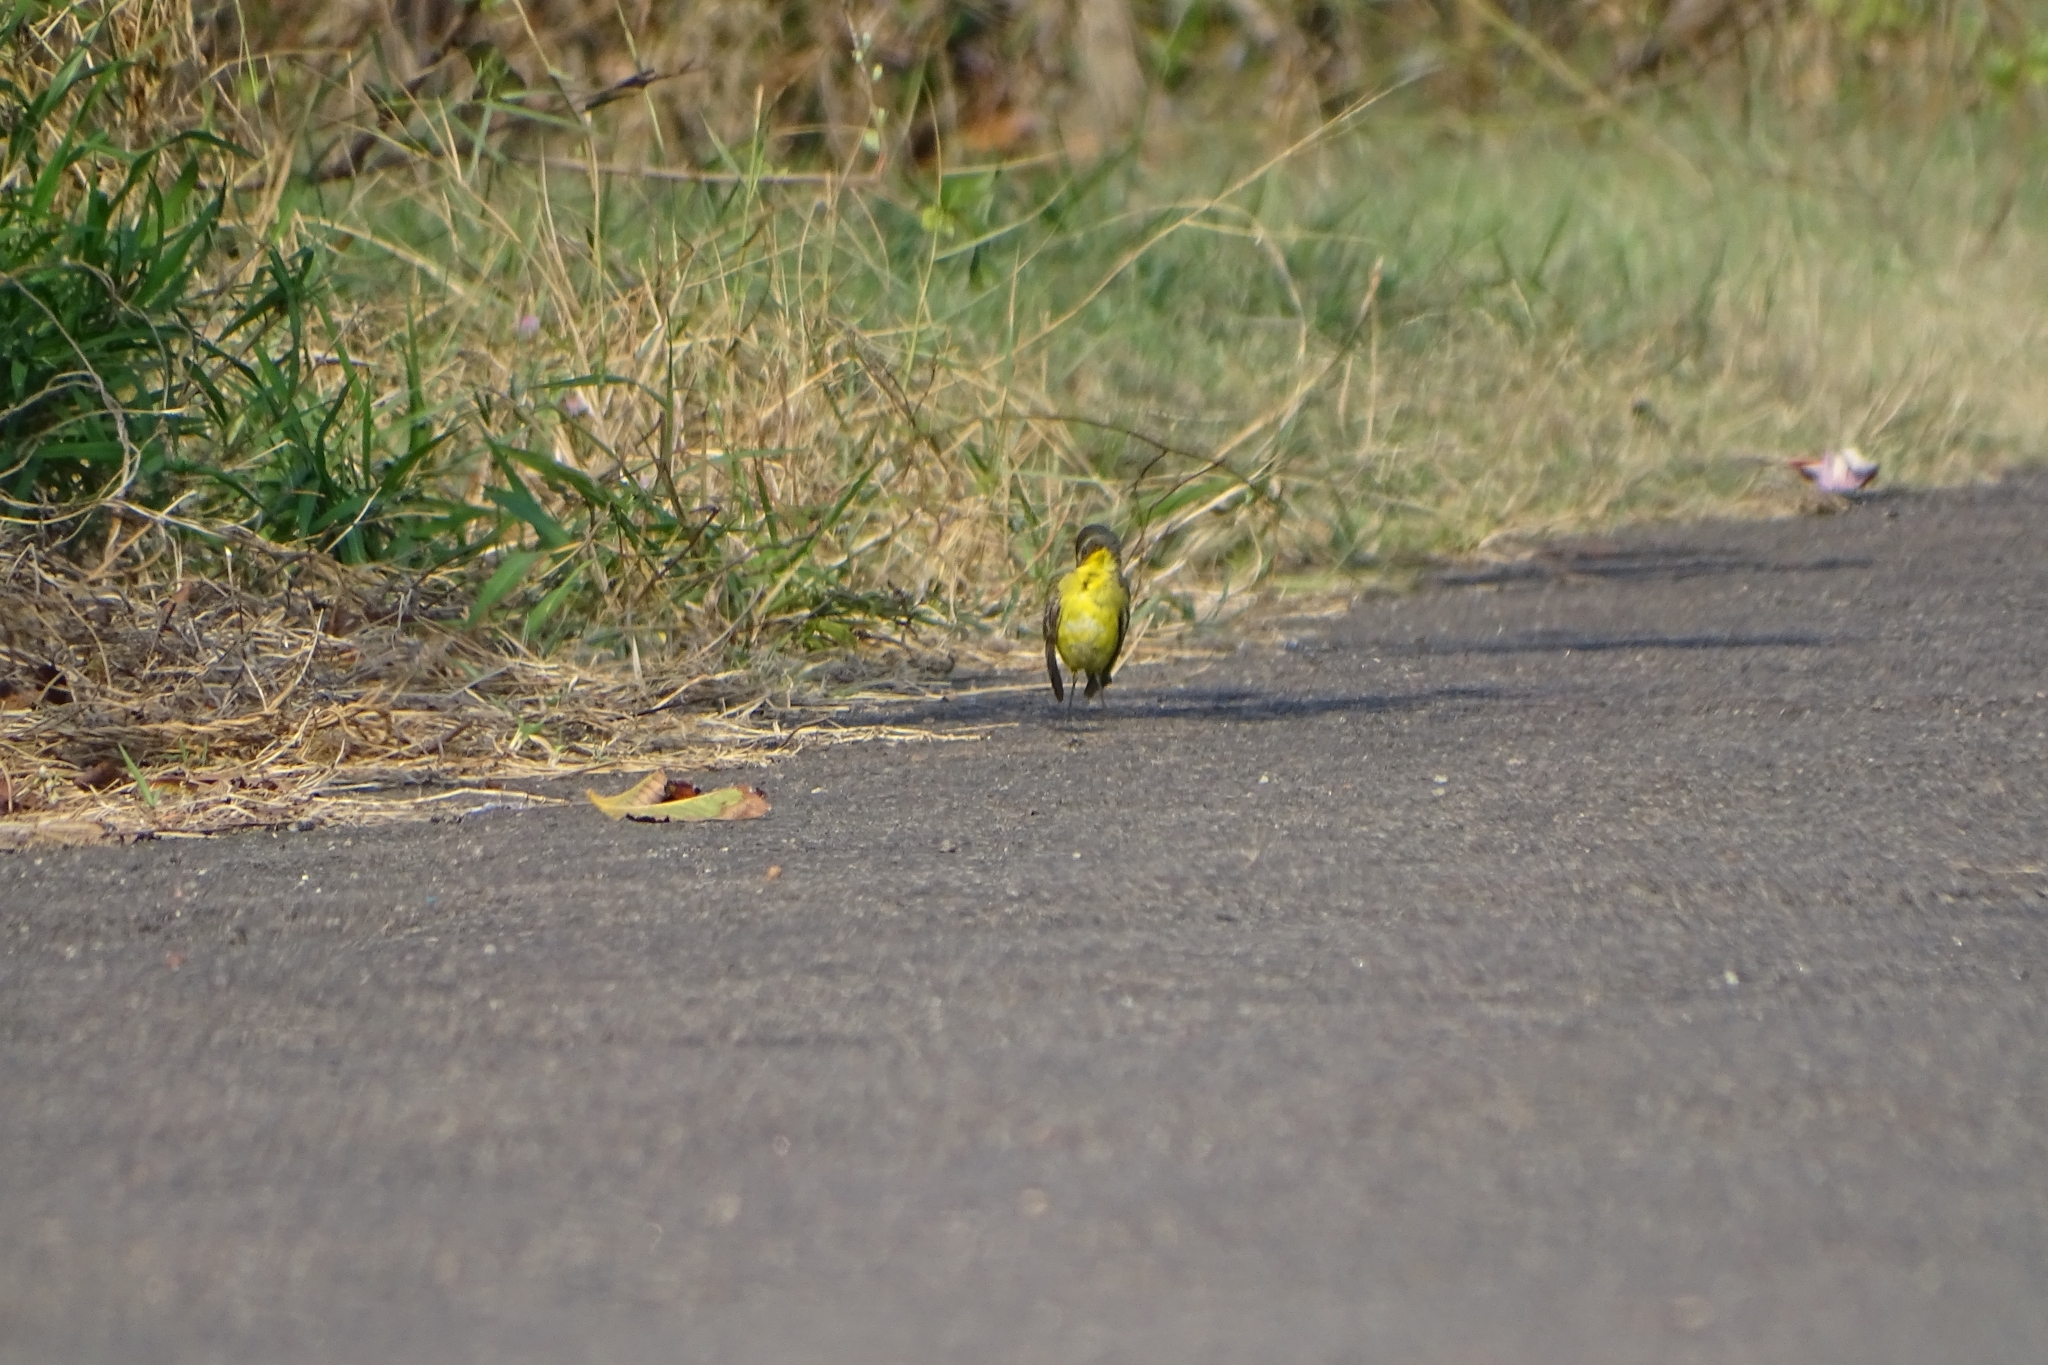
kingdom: Animalia
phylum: Chordata
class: Aves
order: Passeriformes
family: Motacillidae
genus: Motacilla
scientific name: Motacilla flava
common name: Western yellow wagtail
